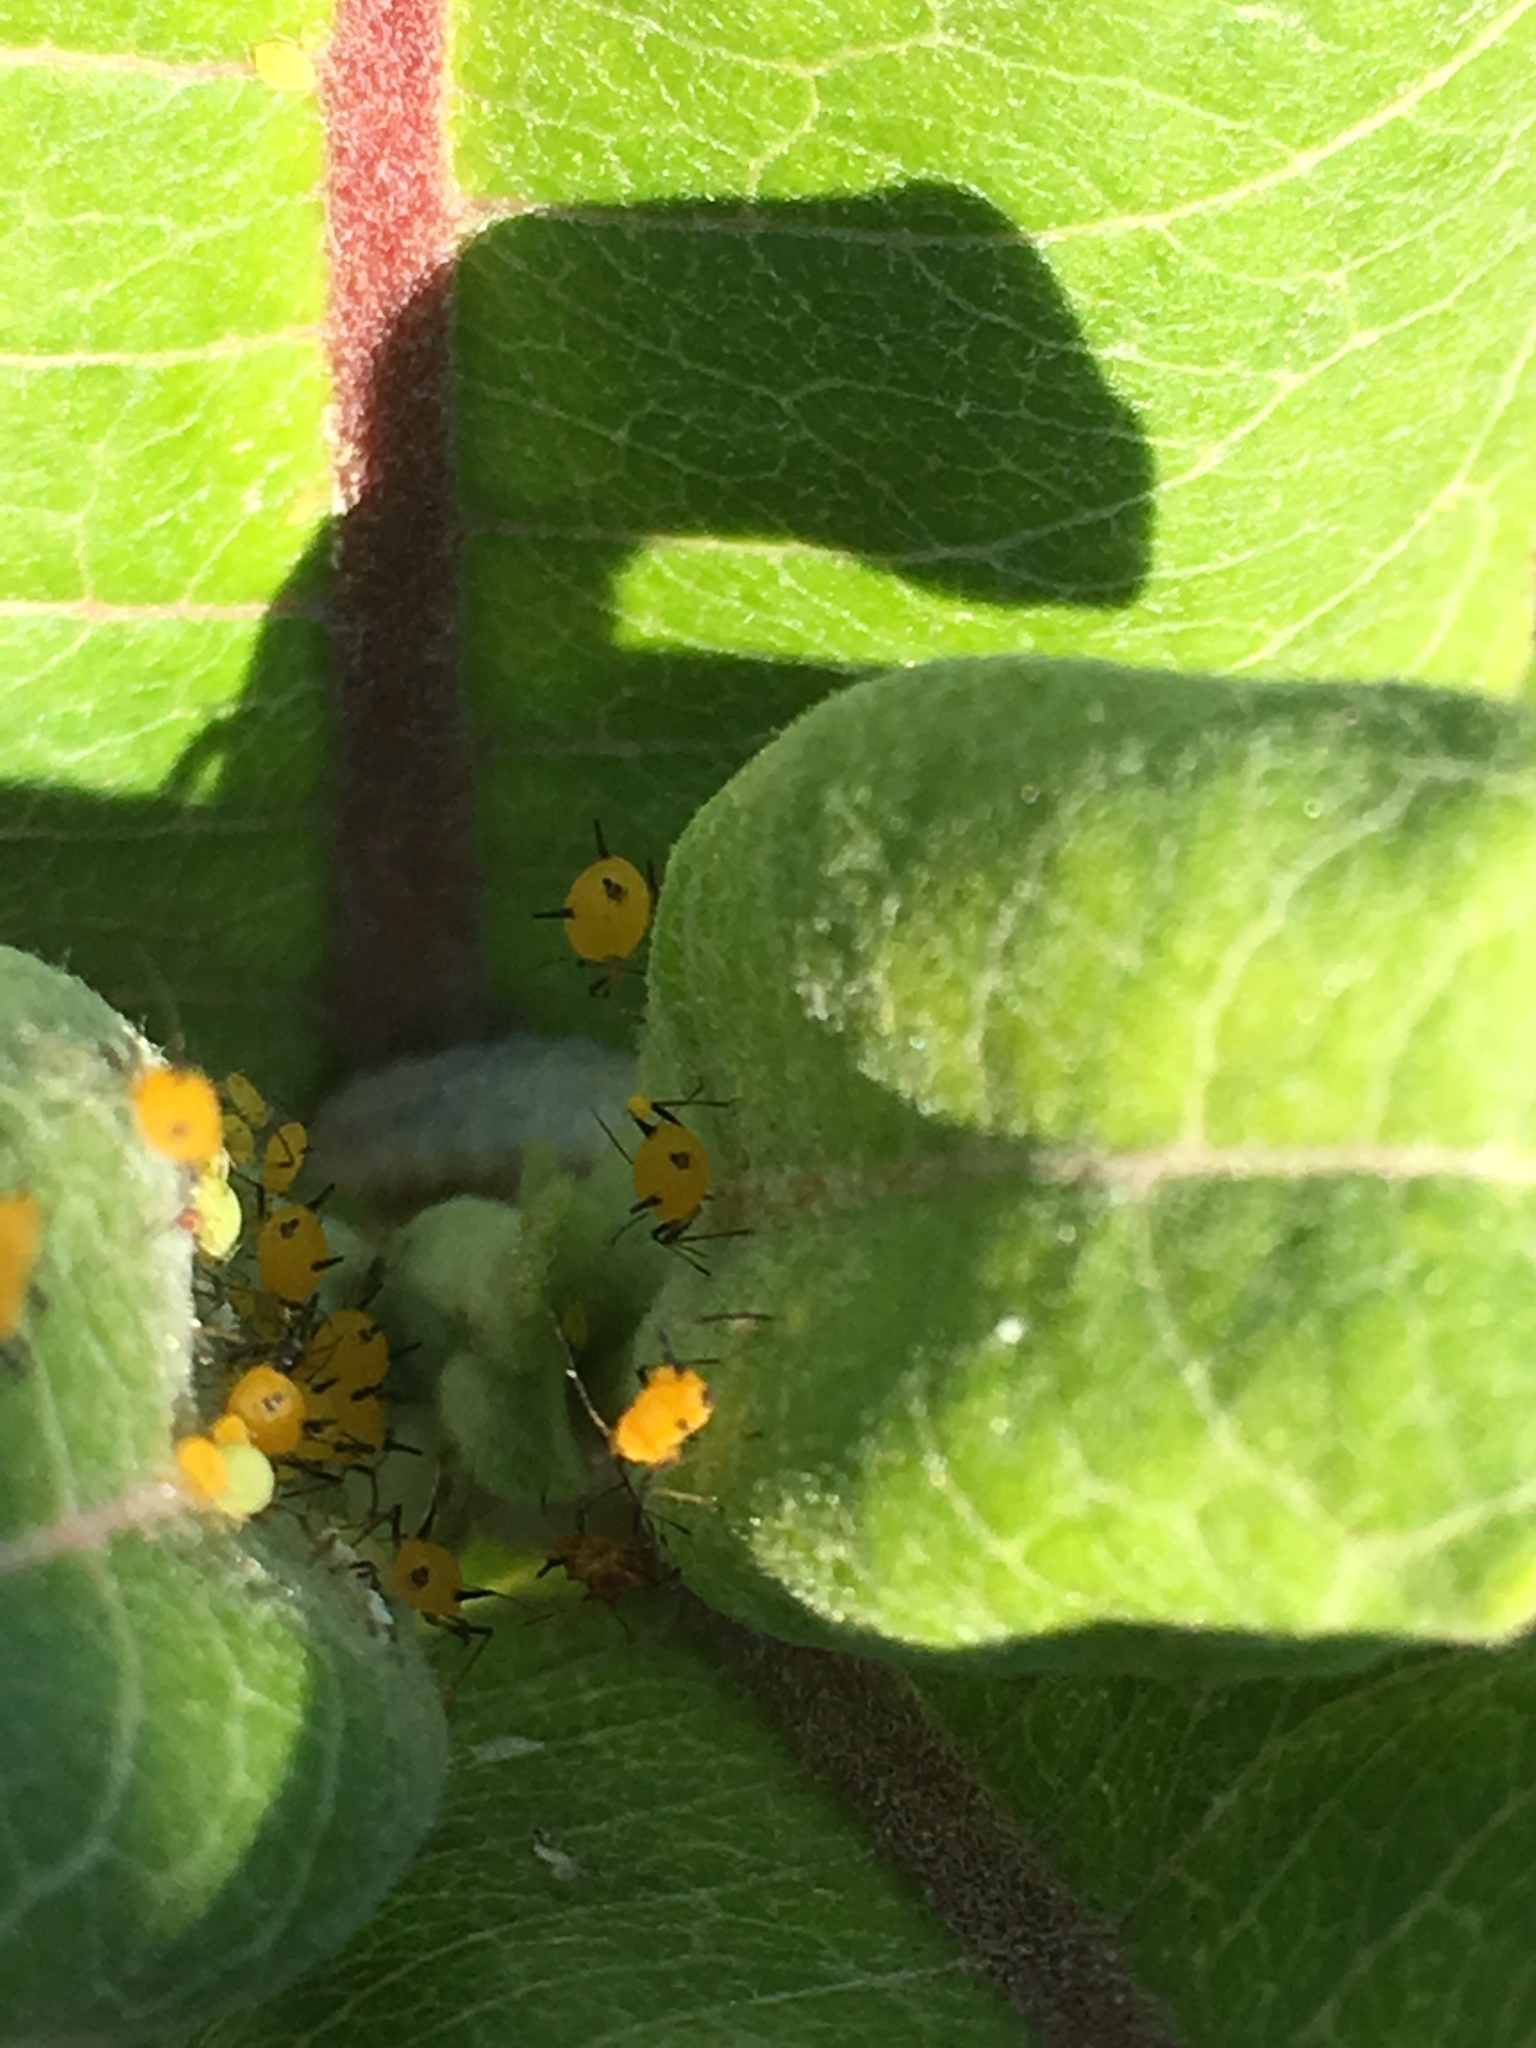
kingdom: Plantae
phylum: Tracheophyta
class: Magnoliopsida
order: Gentianales
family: Apocynaceae
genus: Asclepias
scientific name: Asclepias syriaca
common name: Common milkweed
